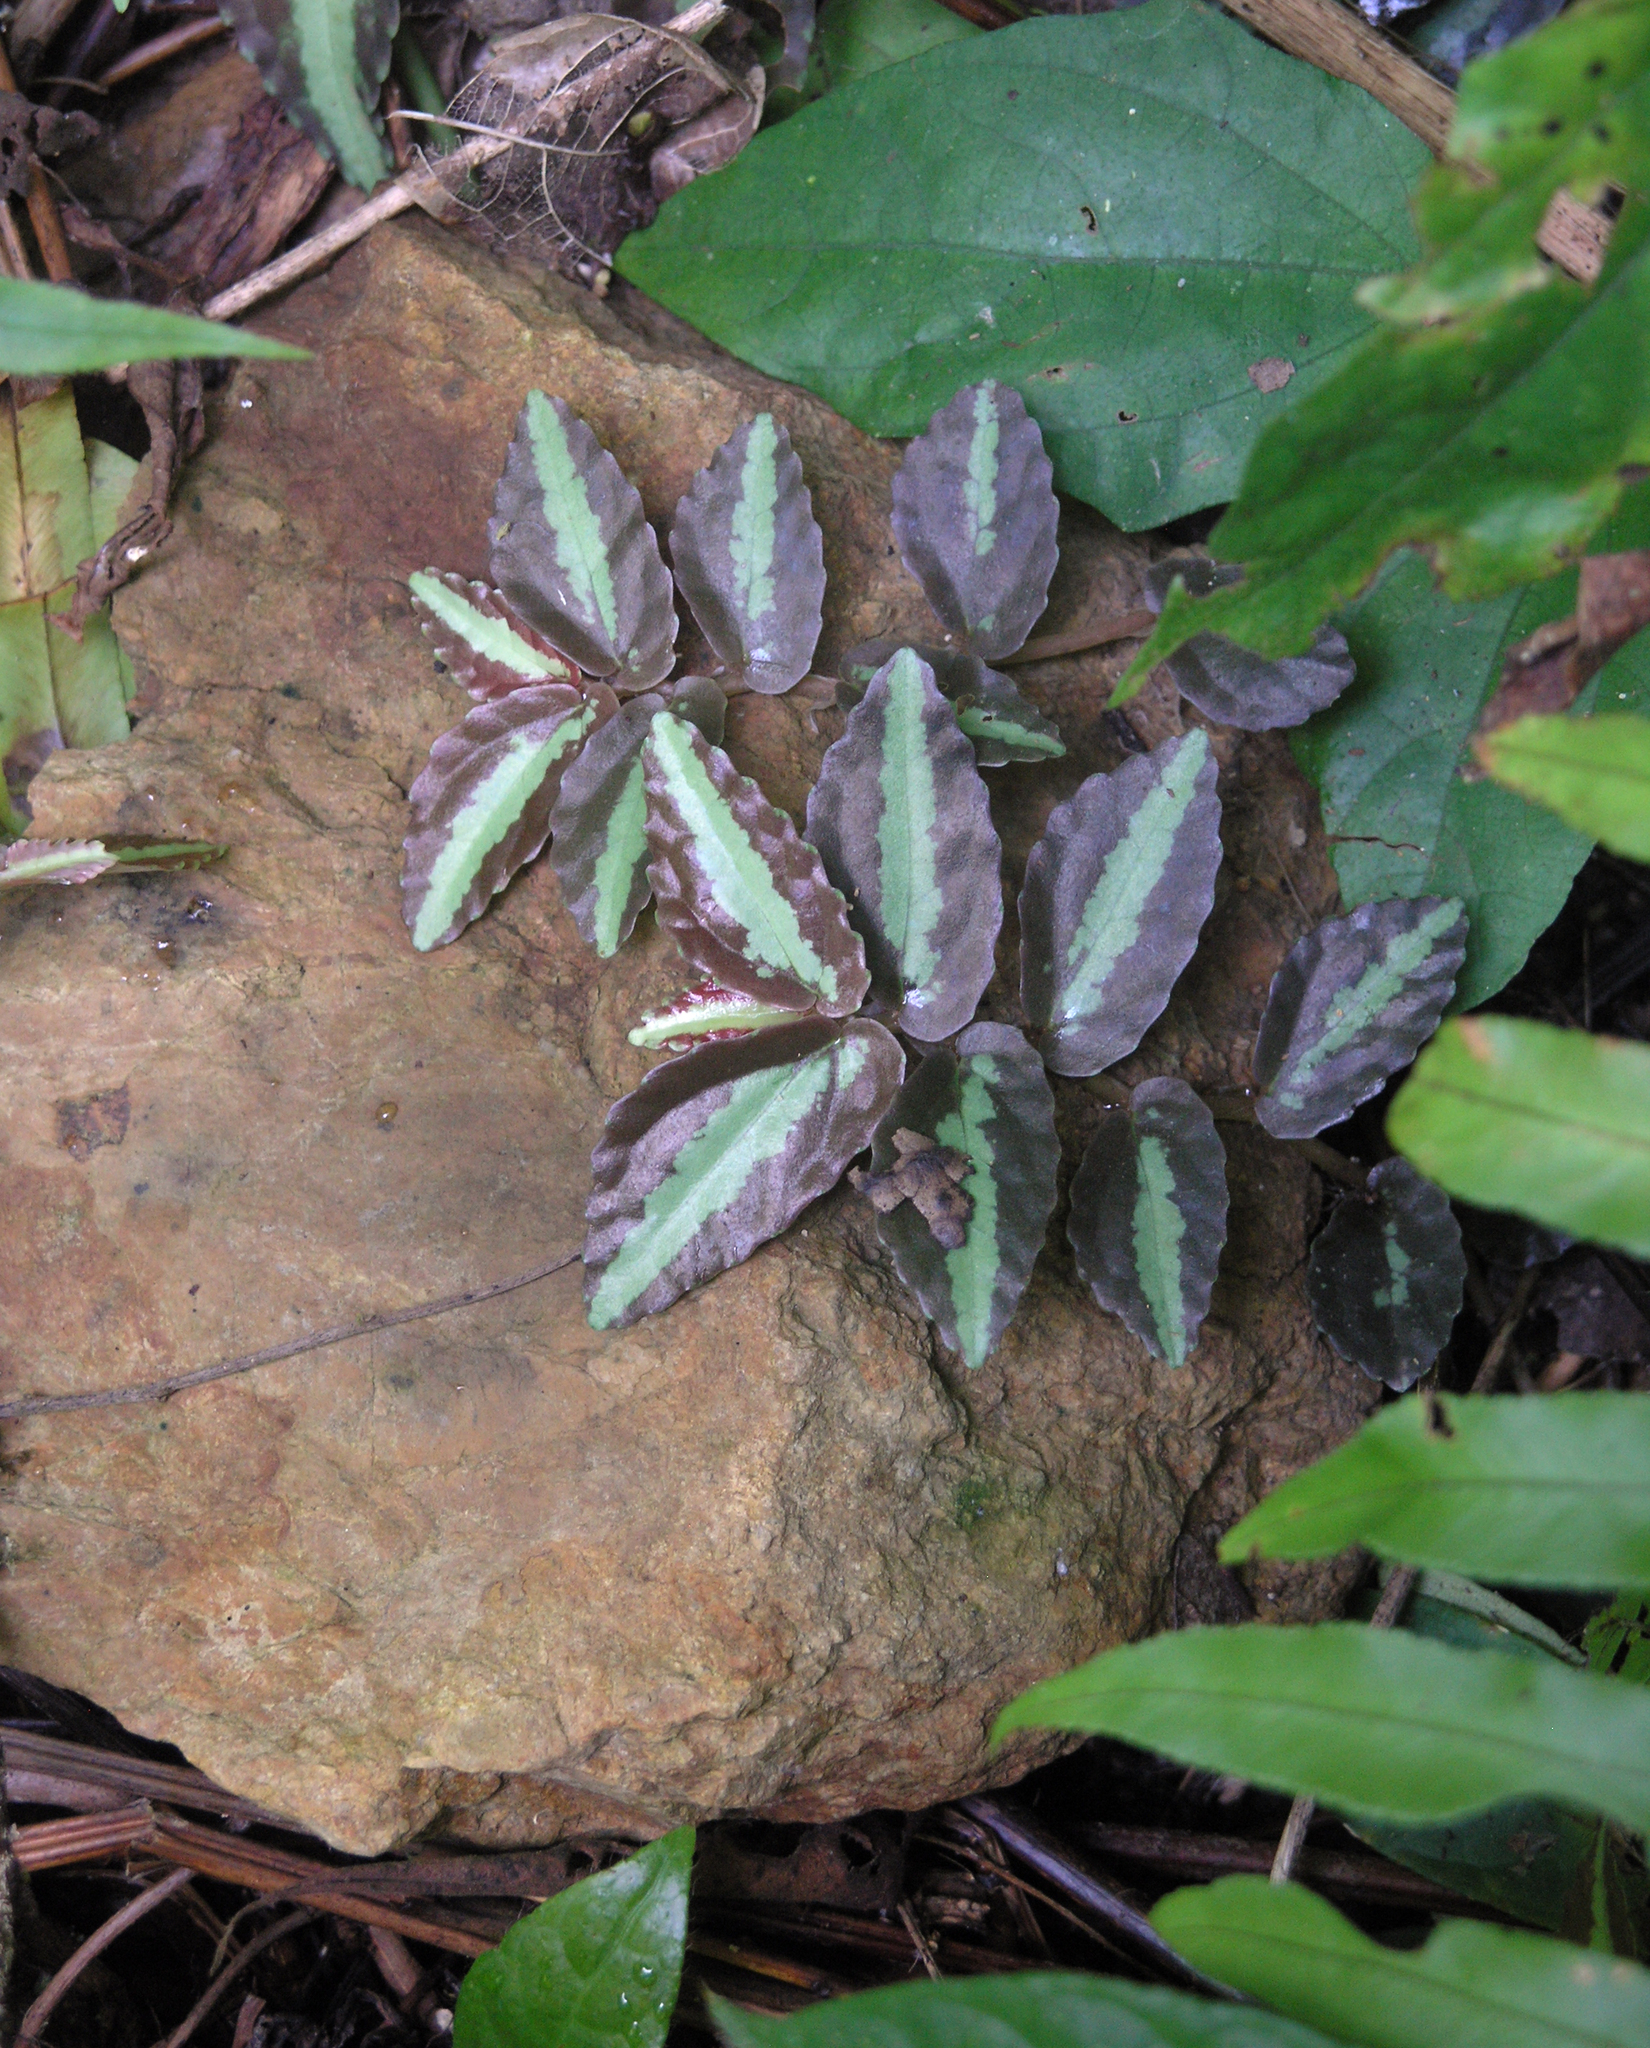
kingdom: Plantae
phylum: Tracheophyta
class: Magnoliopsida
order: Rosales
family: Urticaceae
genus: Procris
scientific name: Procris repens
